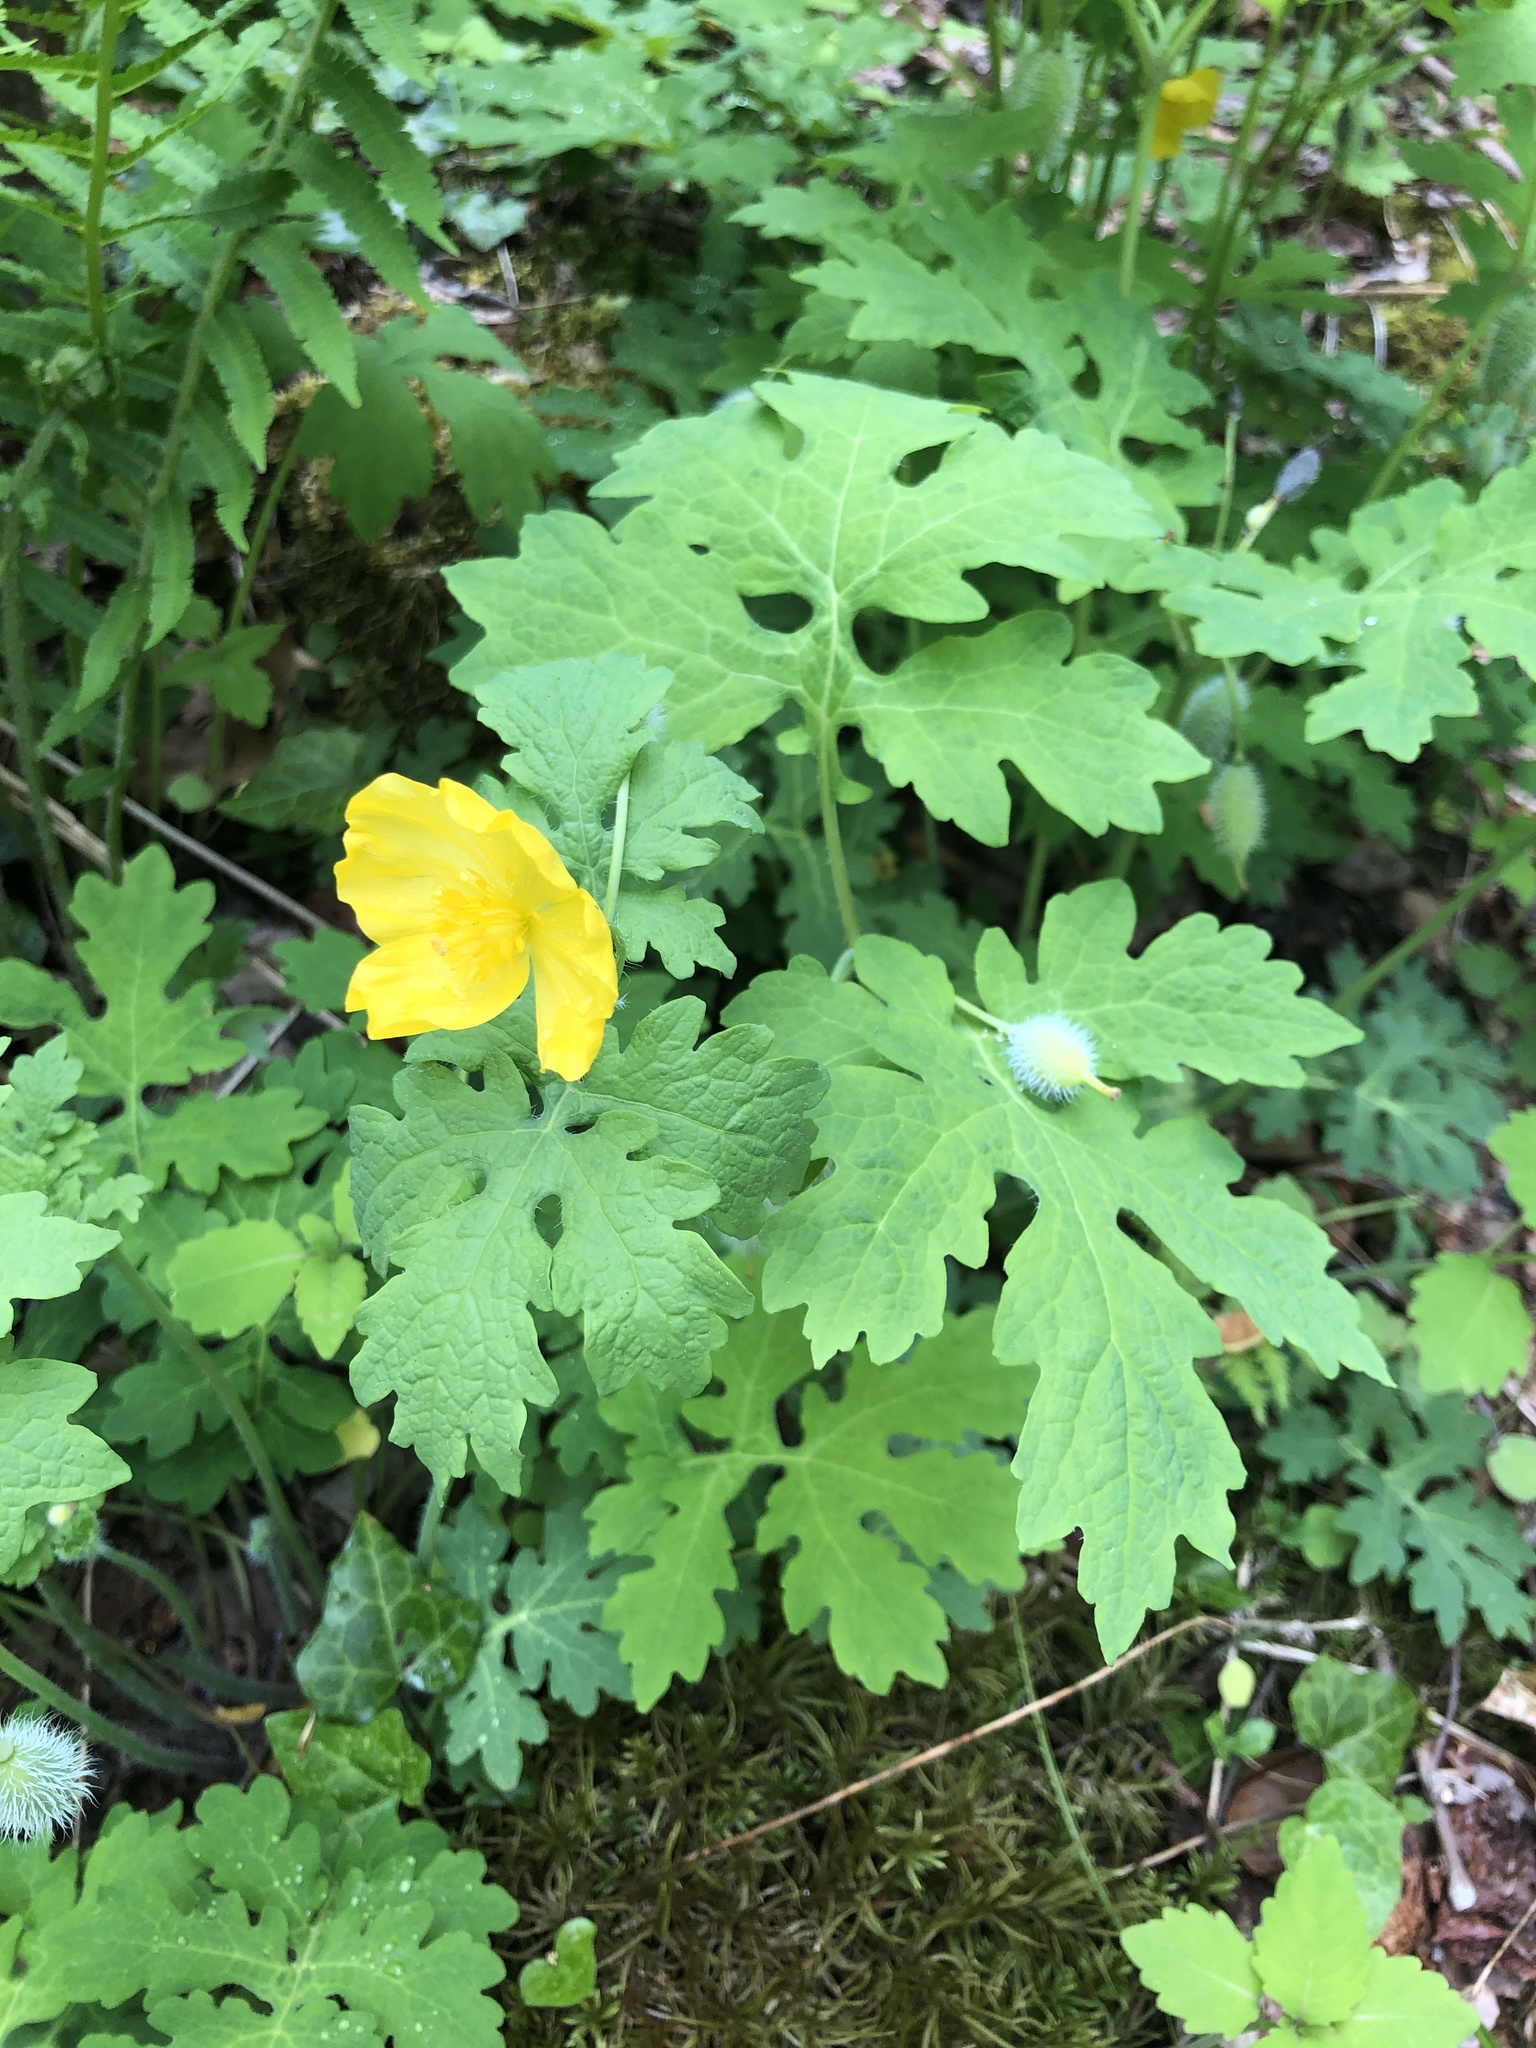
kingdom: Plantae
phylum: Tracheophyta
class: Magnoliopsida
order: Ranunculales
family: Papaveraceae
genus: Stylophorum
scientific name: Stylophorum diphyllum
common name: Celandine poppy
